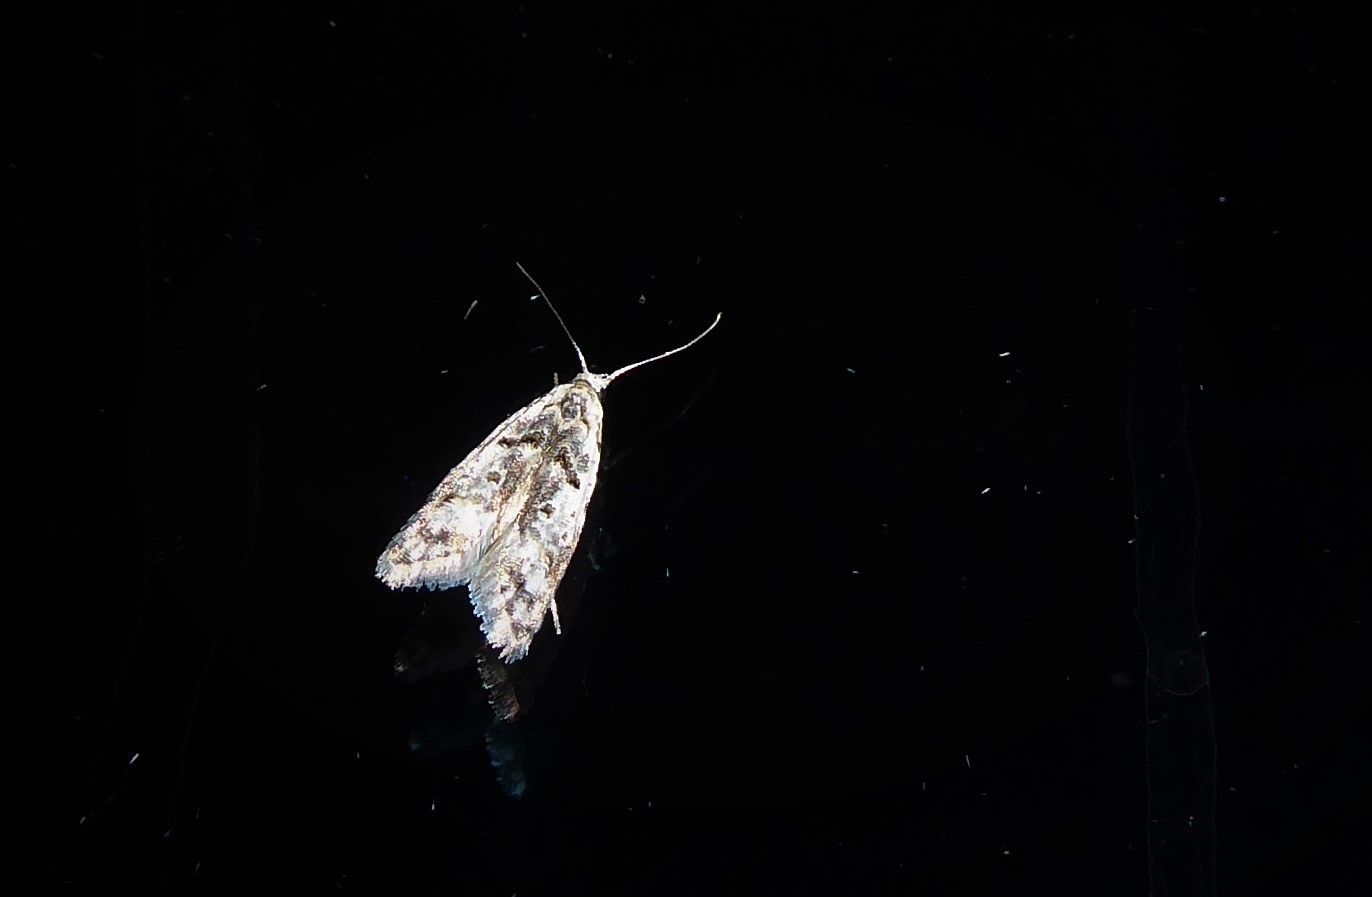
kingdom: Animalia
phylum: Arthropoda
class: Insecta
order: Lepidoptera
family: Carposinidae
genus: Carposina
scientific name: Carposina
